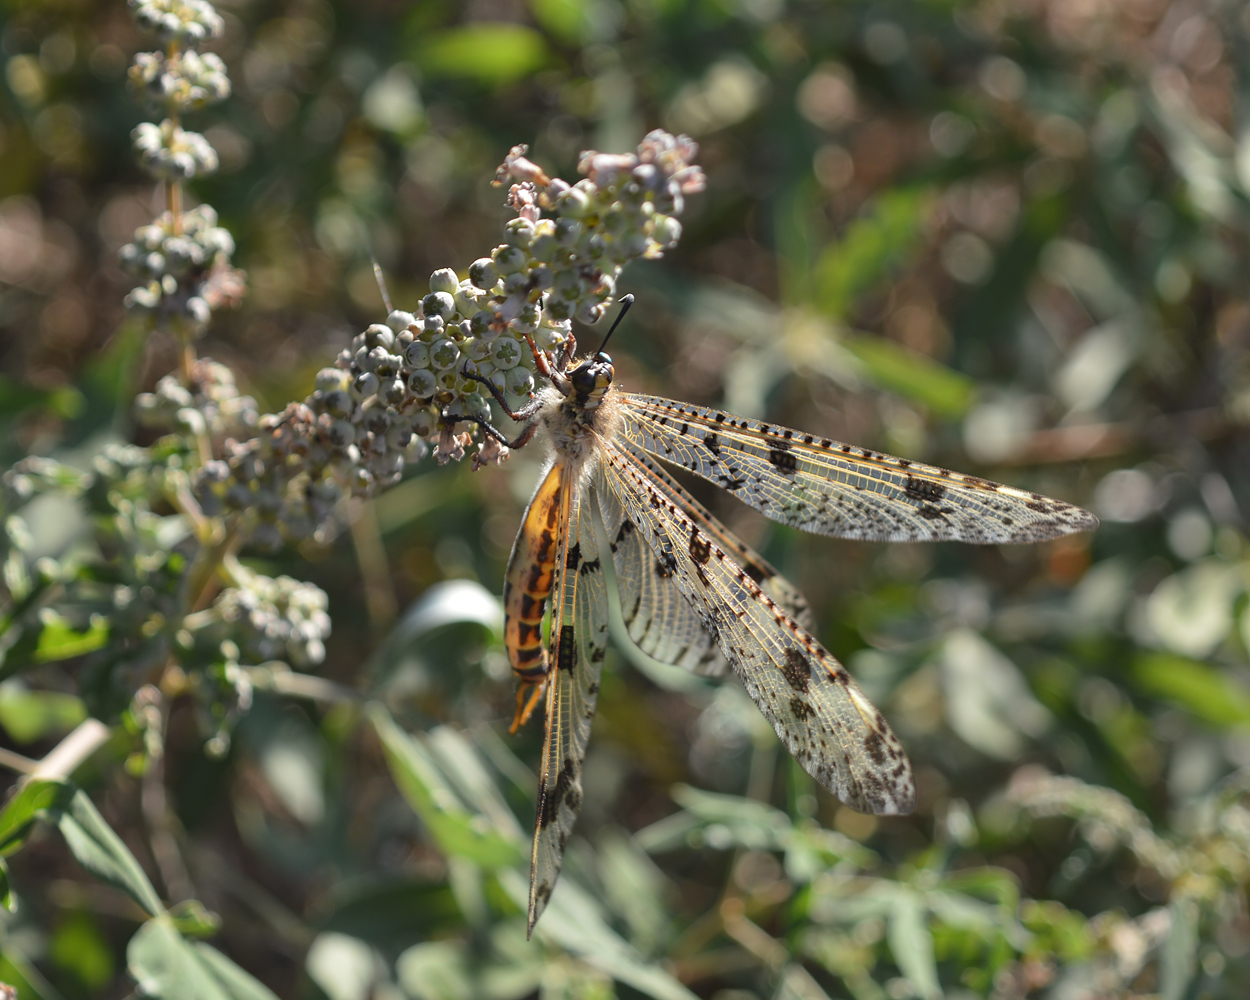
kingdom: Animalia
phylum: Arthropoda
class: Insecta
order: Neuroptera
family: Myrmeleontidae
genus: Palpares
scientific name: Palpares libelluloides
